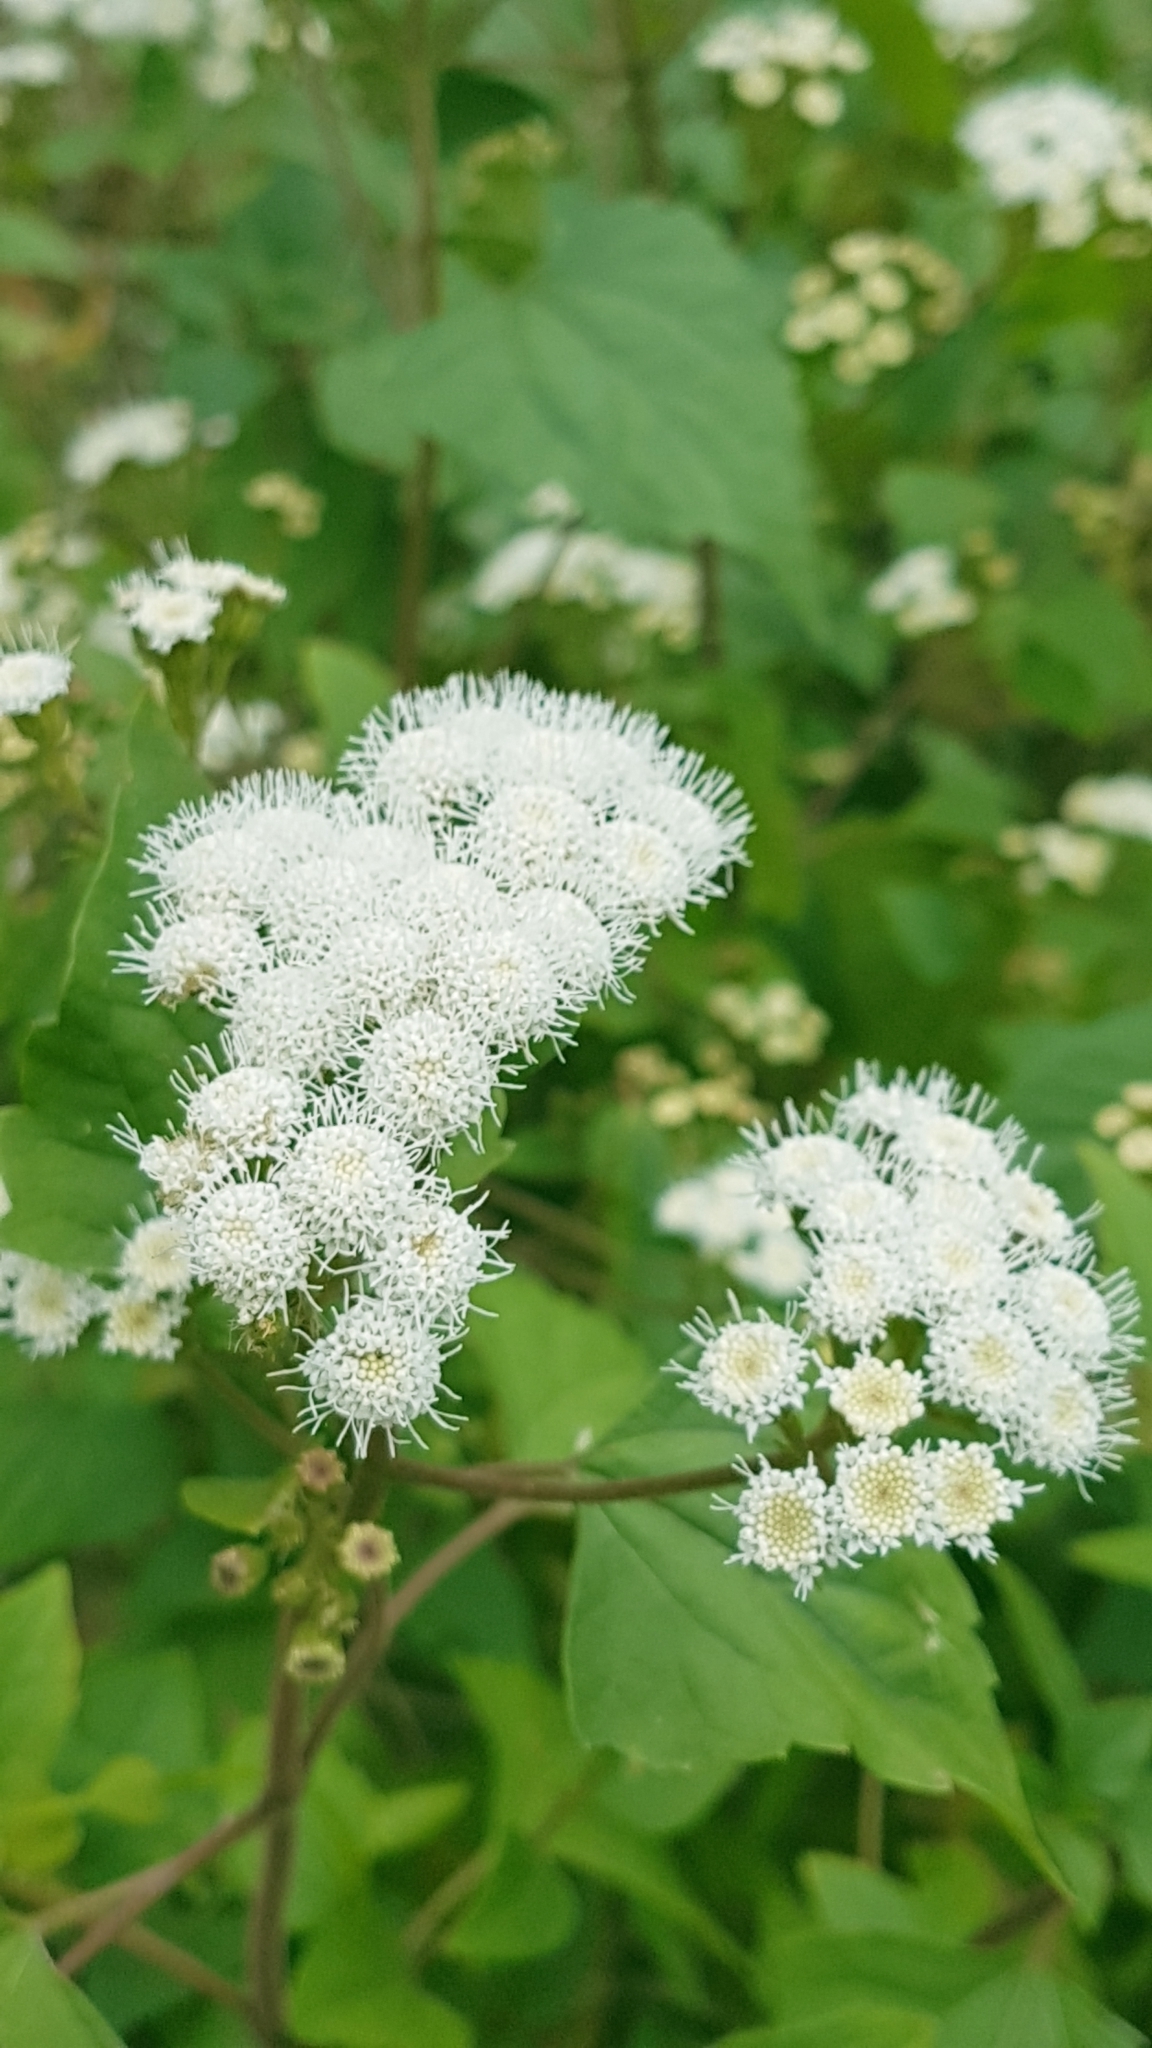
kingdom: Plantae
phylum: Tracheophyta
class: Magnoliopsida
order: Asterales
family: Asteraceae
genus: Ageratina
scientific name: Ageratina adenophora
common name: Sticky snakeroot
